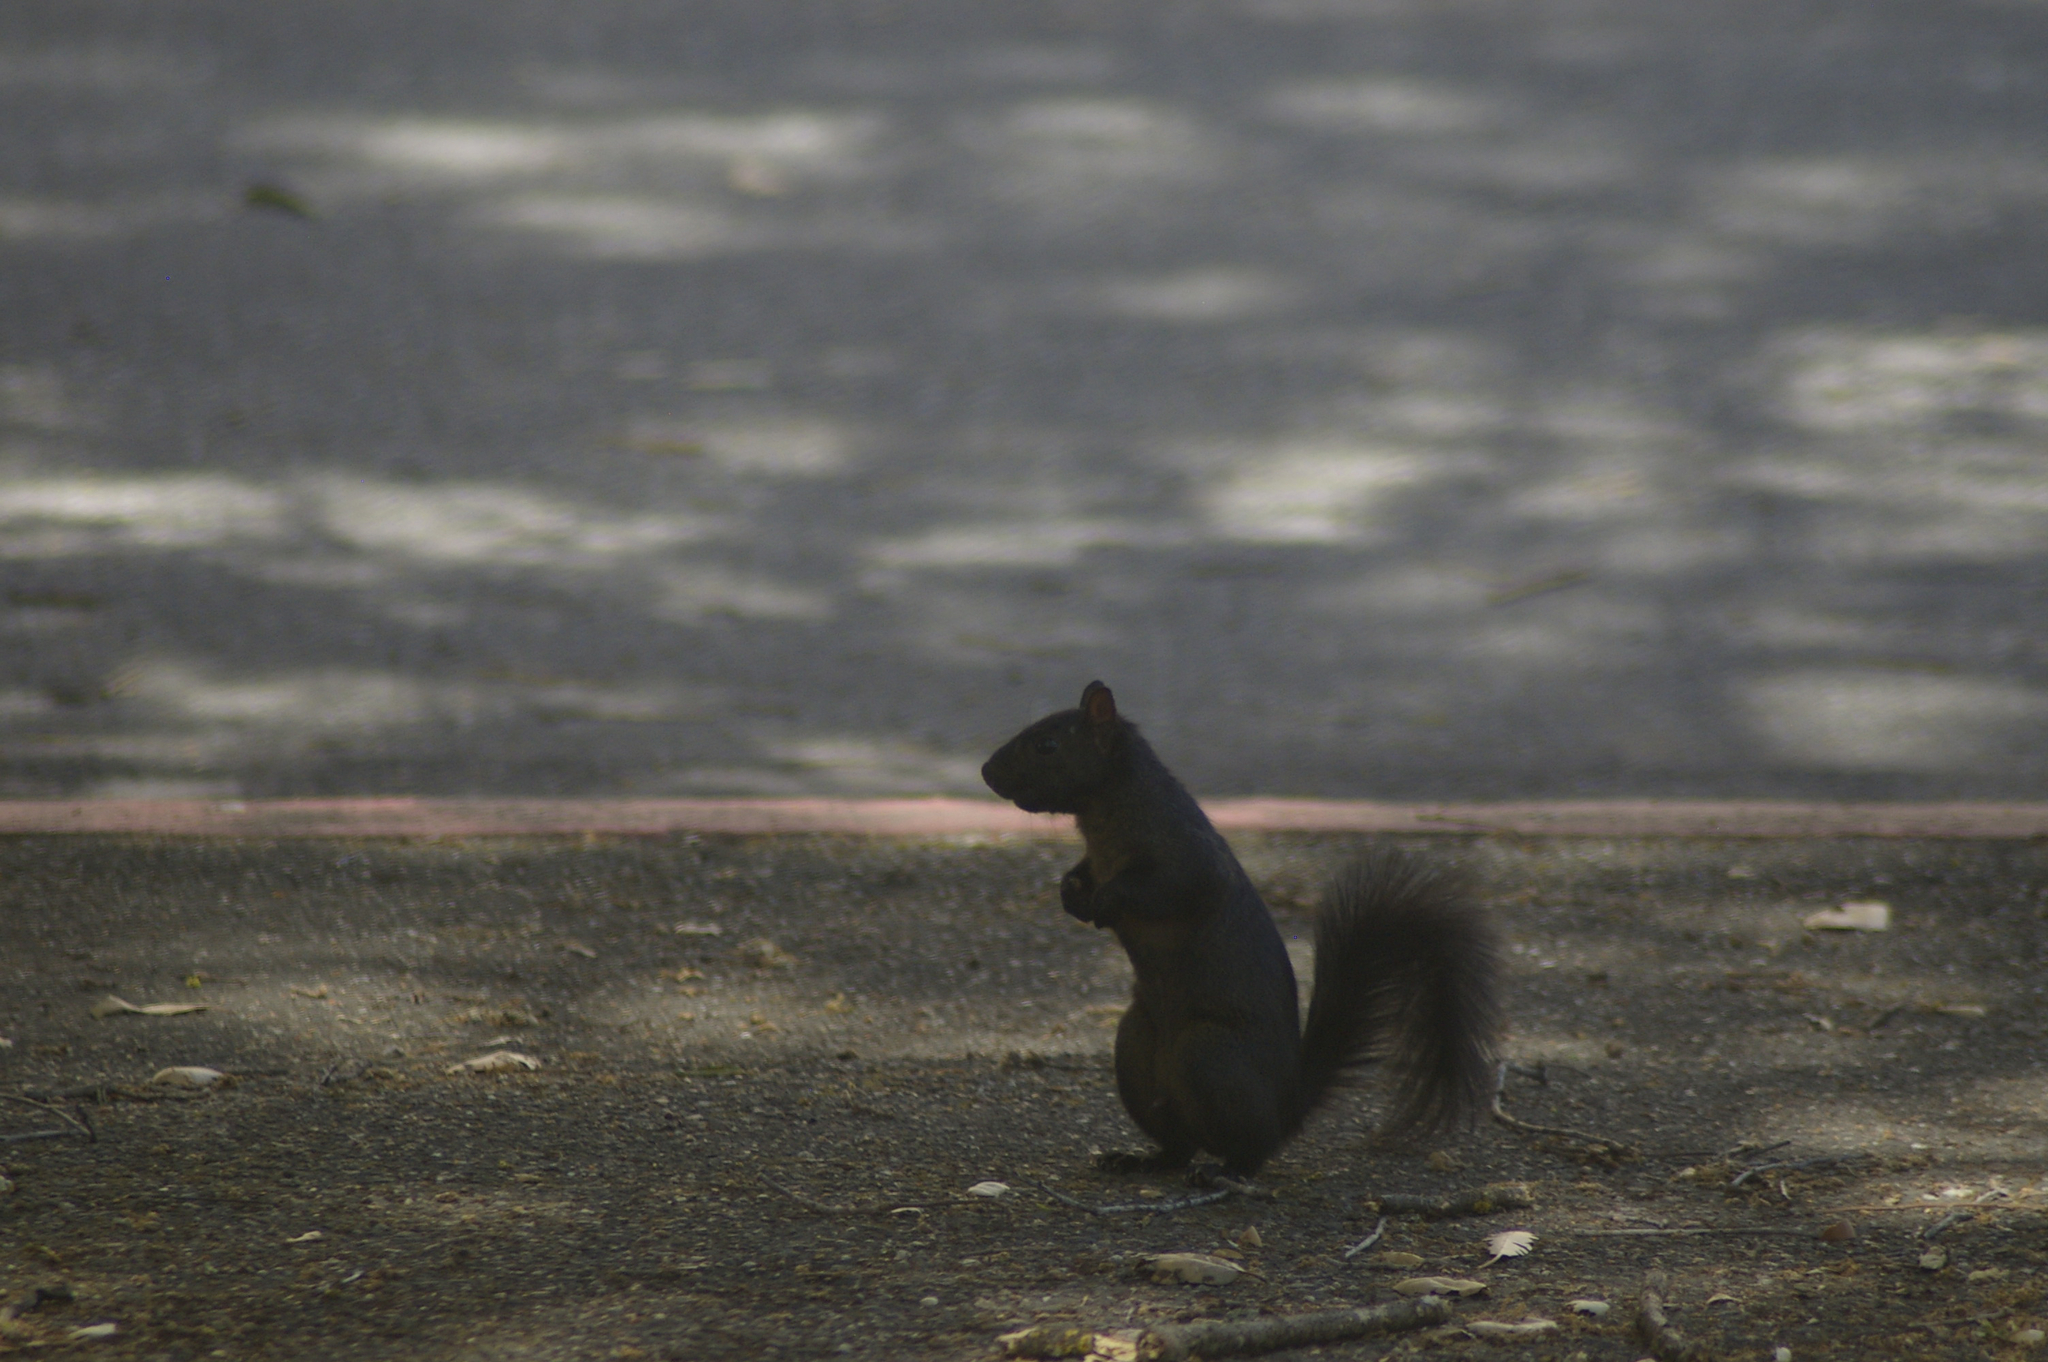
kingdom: Animalia
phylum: Chordata
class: Mammalia
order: Rodentia
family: Sciuridae
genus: Sciurus
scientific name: Sciurus carolinensis
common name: Eastern gray squirrel
